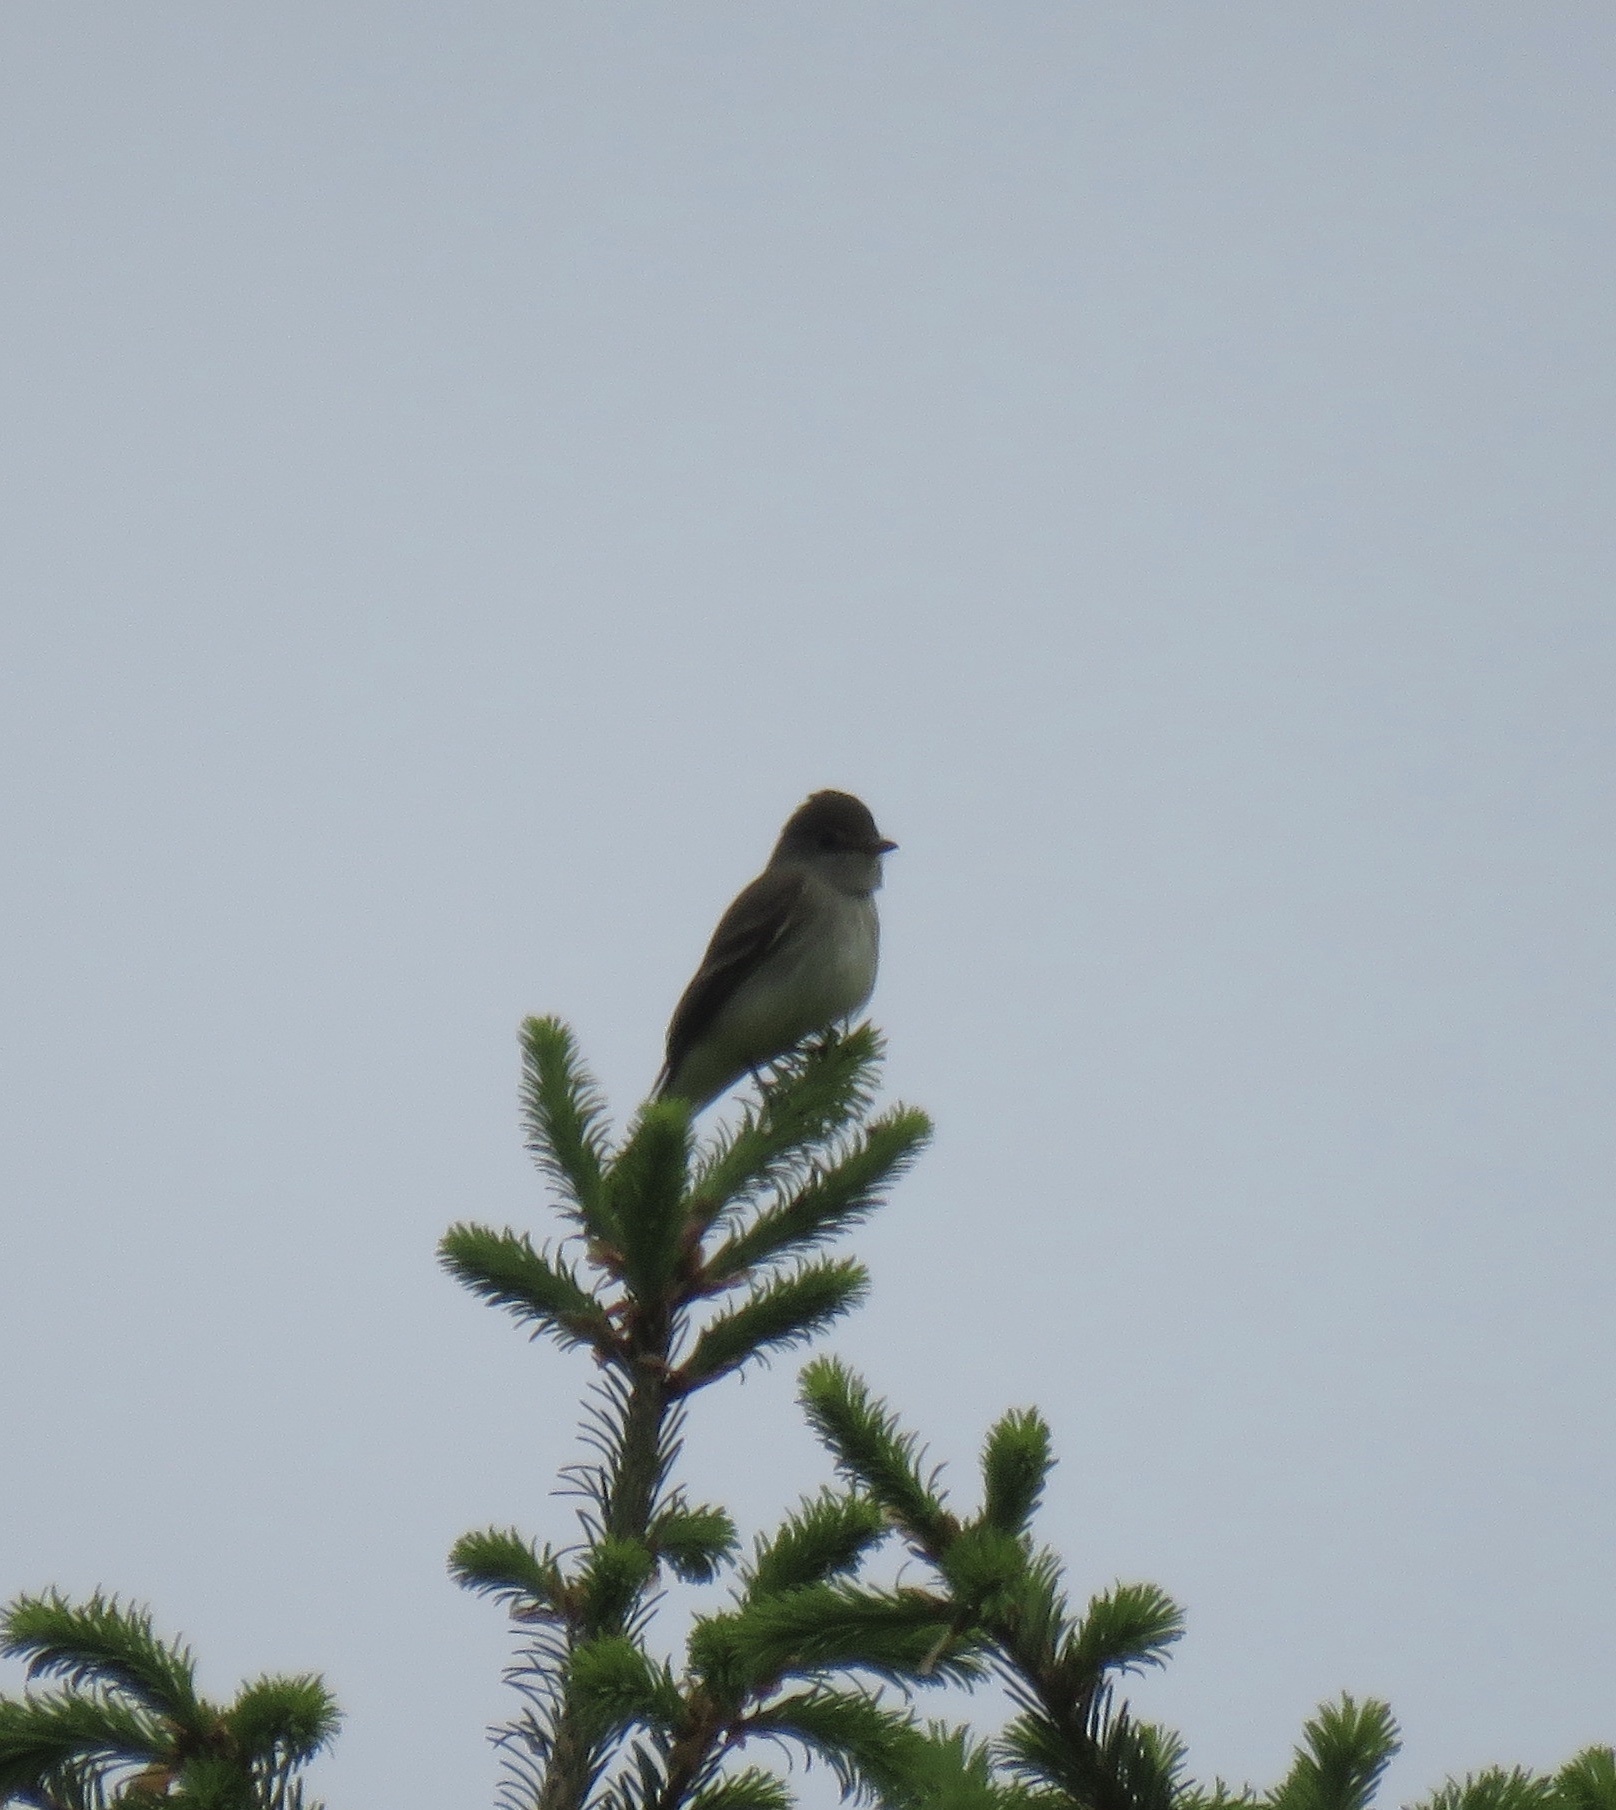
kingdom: Animalia
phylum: Chordata
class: Aves
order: Passeriformes
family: Tyrannidae
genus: Empidonax
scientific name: Empidonax traillii
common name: Willow flycatcher
